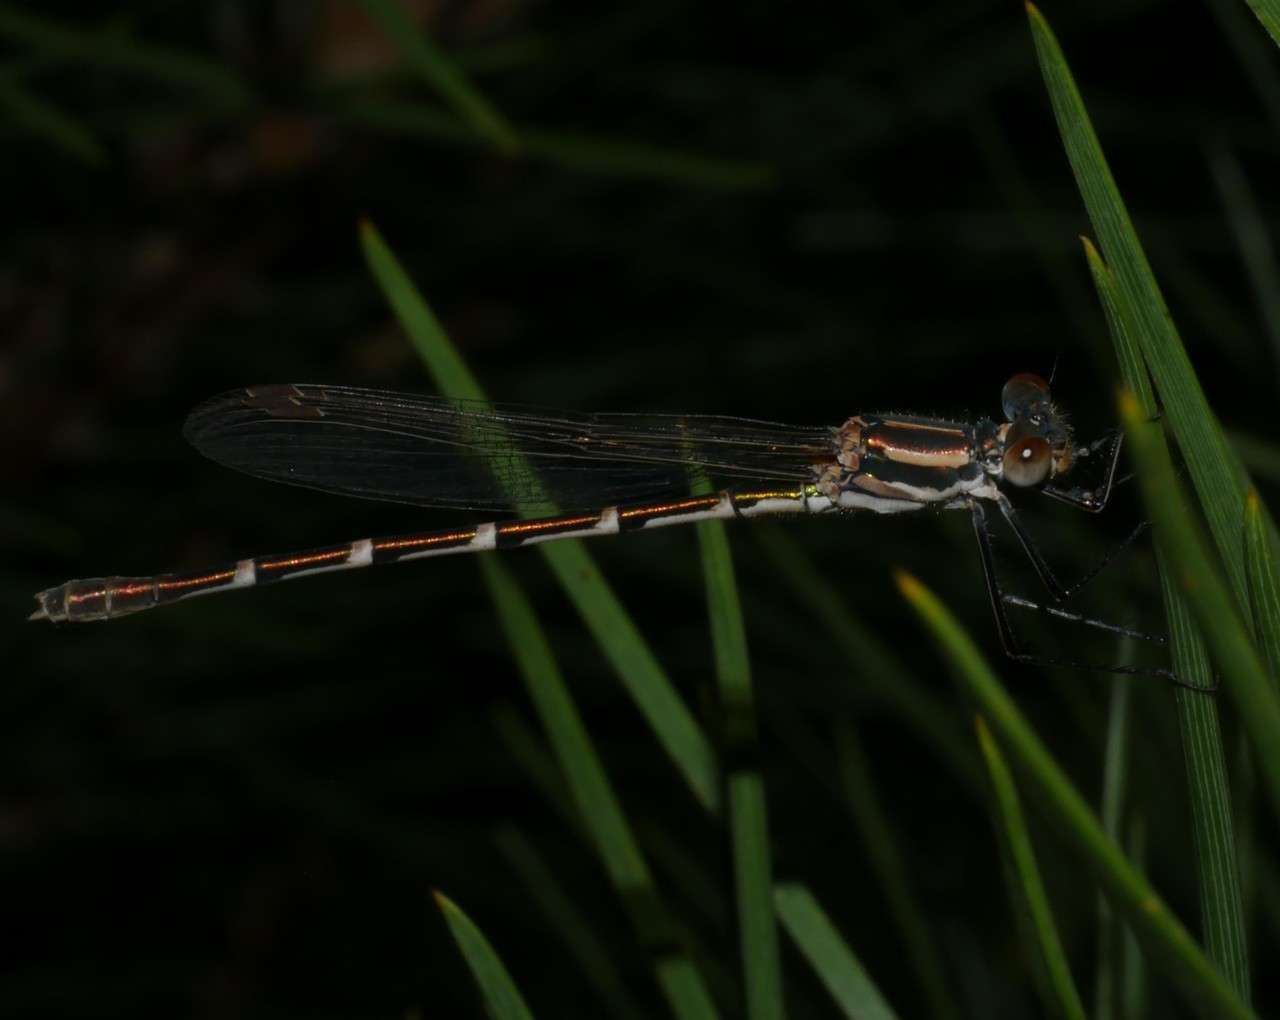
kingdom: Animalia
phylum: Arthropoda
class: Insecta
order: Odonata
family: Lestidae
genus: Austrolestes
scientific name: Austrolestes annulosus
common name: Blue ringtail
